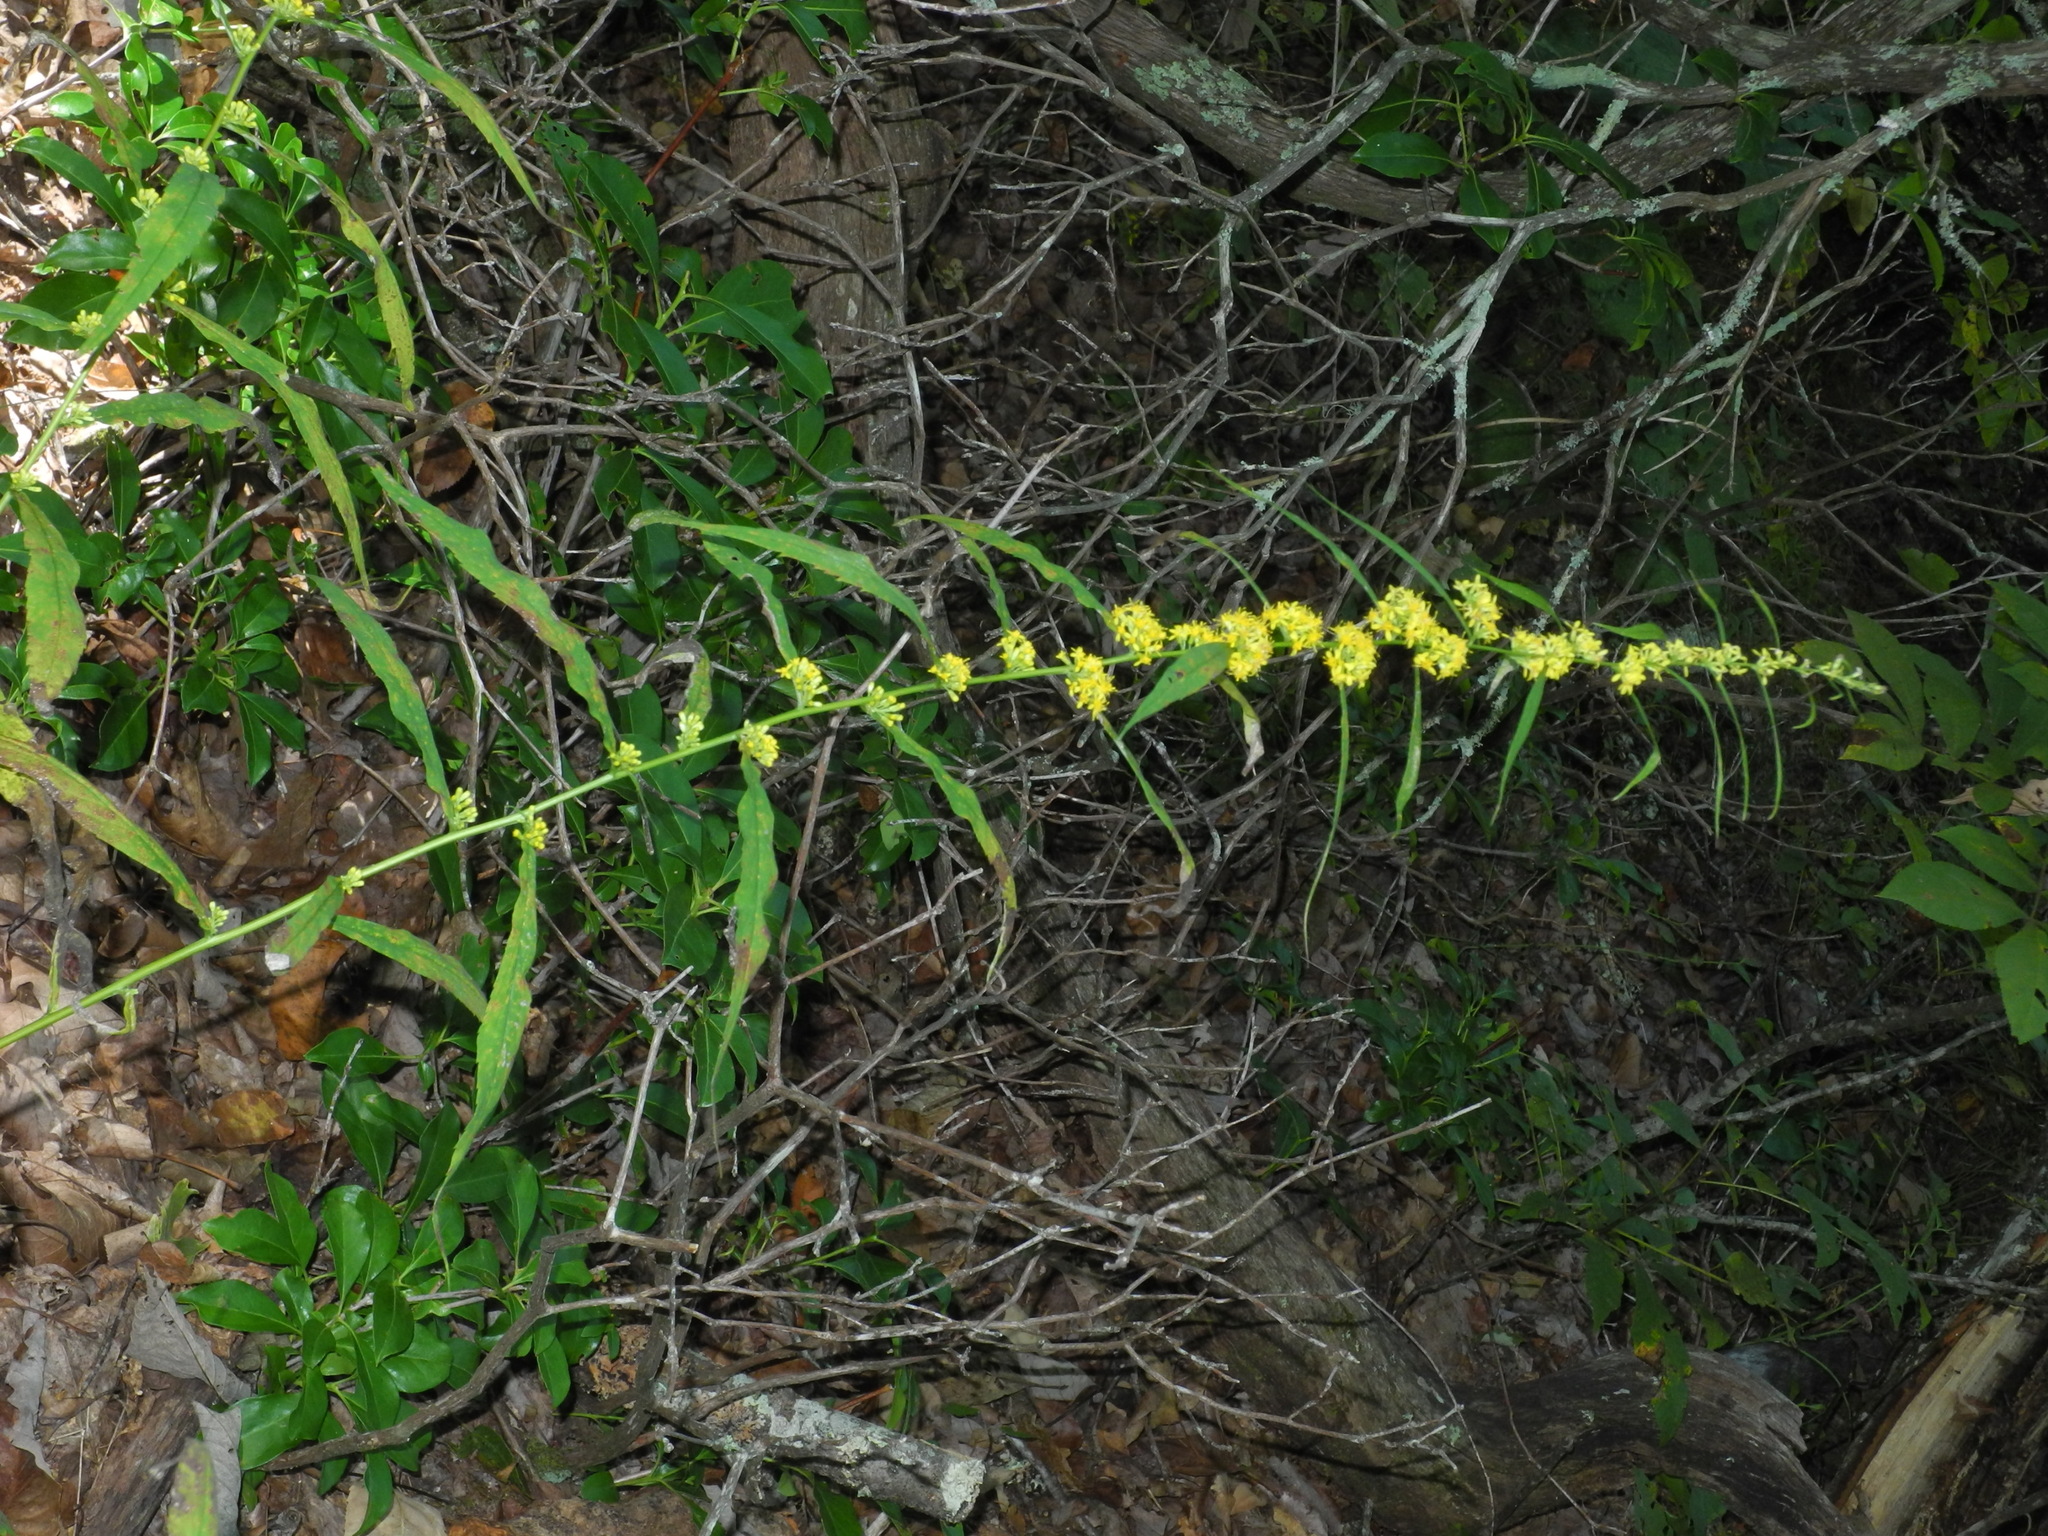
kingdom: Plantae
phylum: Tracheophyta
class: Magnoliopsida
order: Asterales
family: Asteraceae
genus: Solidago
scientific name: Solidago caesia
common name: Woodland goldenrod
